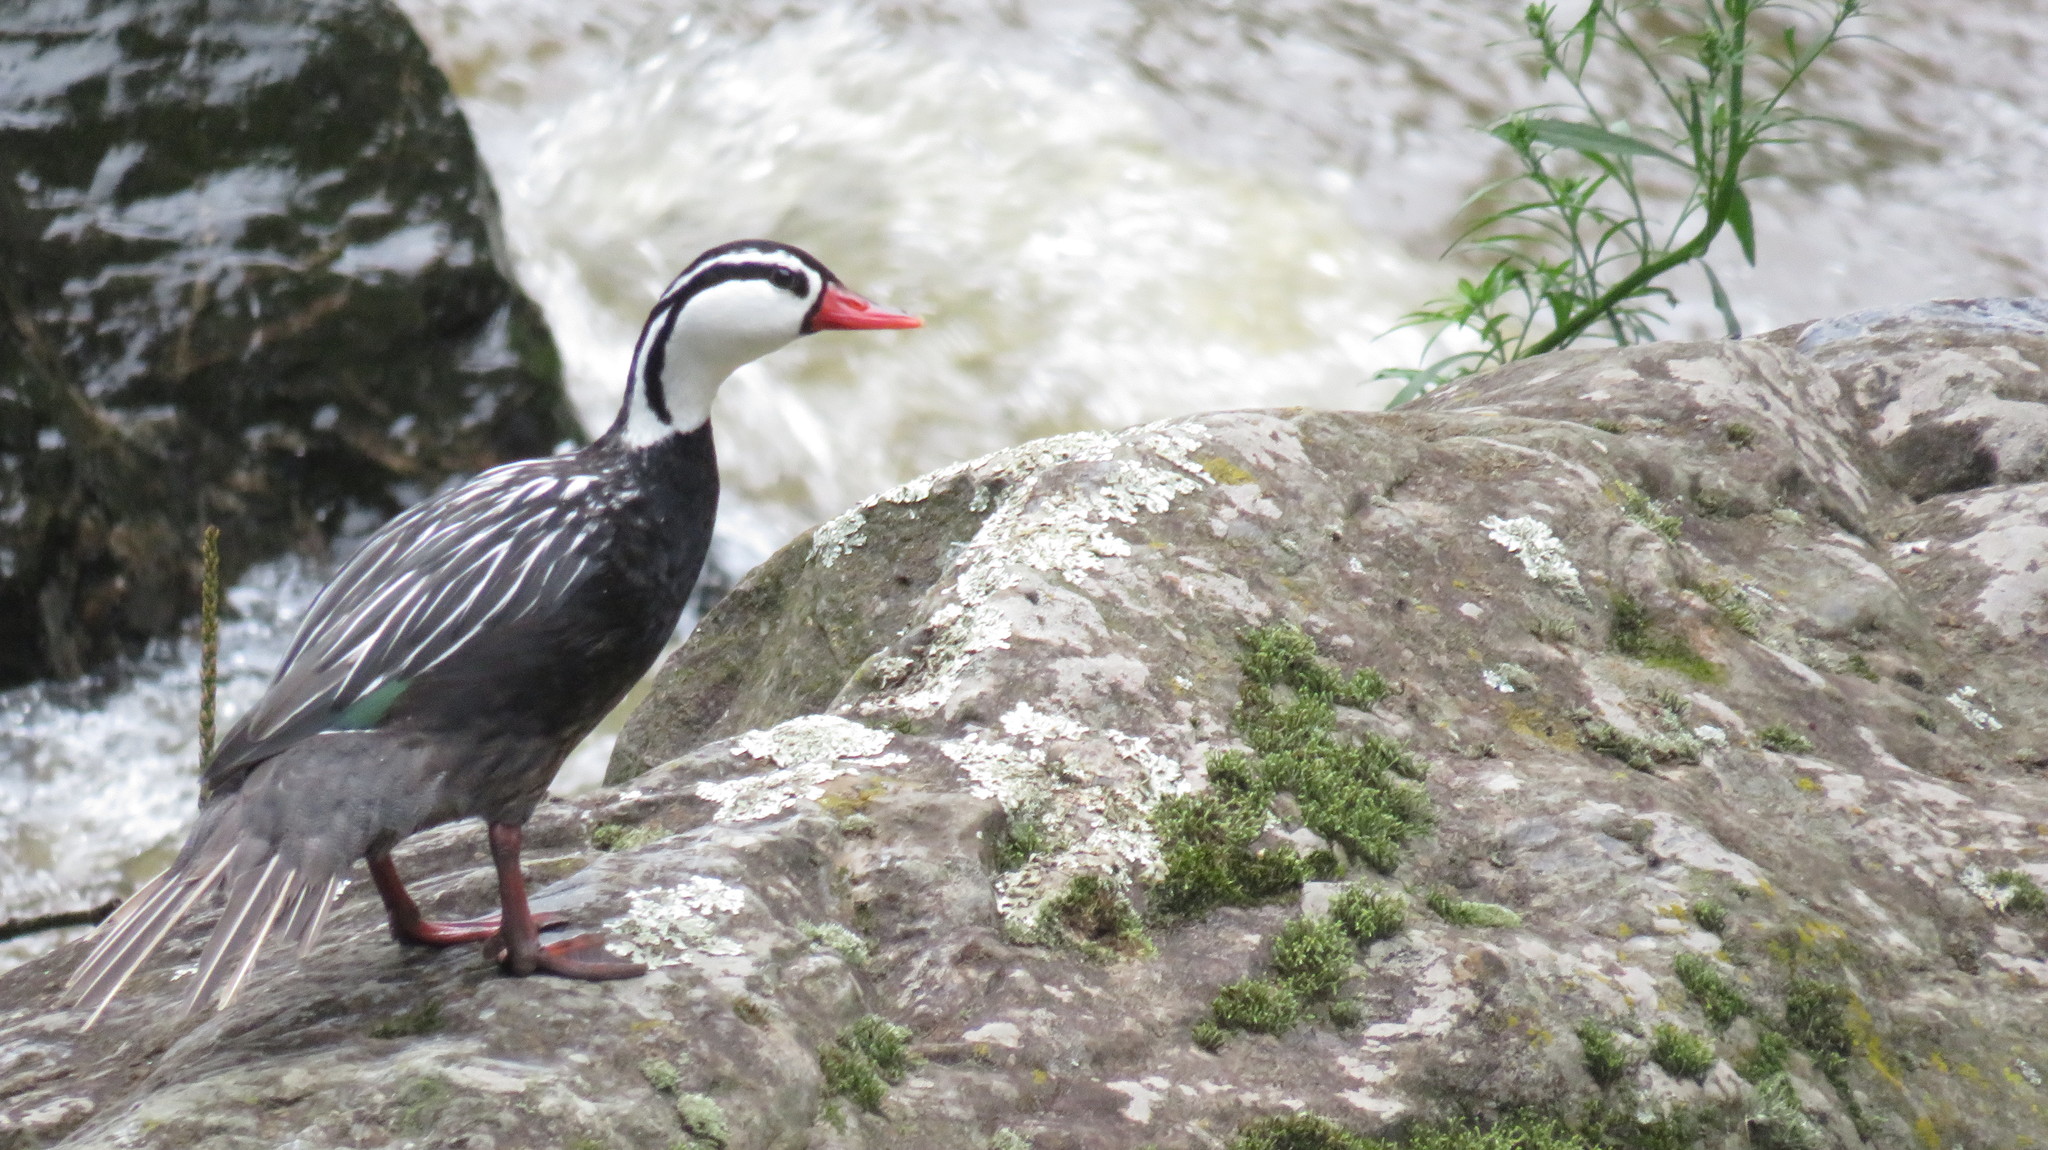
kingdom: Animalia
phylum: Chordata
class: Aves
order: Anseriformes
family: Anatidae
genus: Merganetta
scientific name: Merganetta armata
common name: Torrent duck
